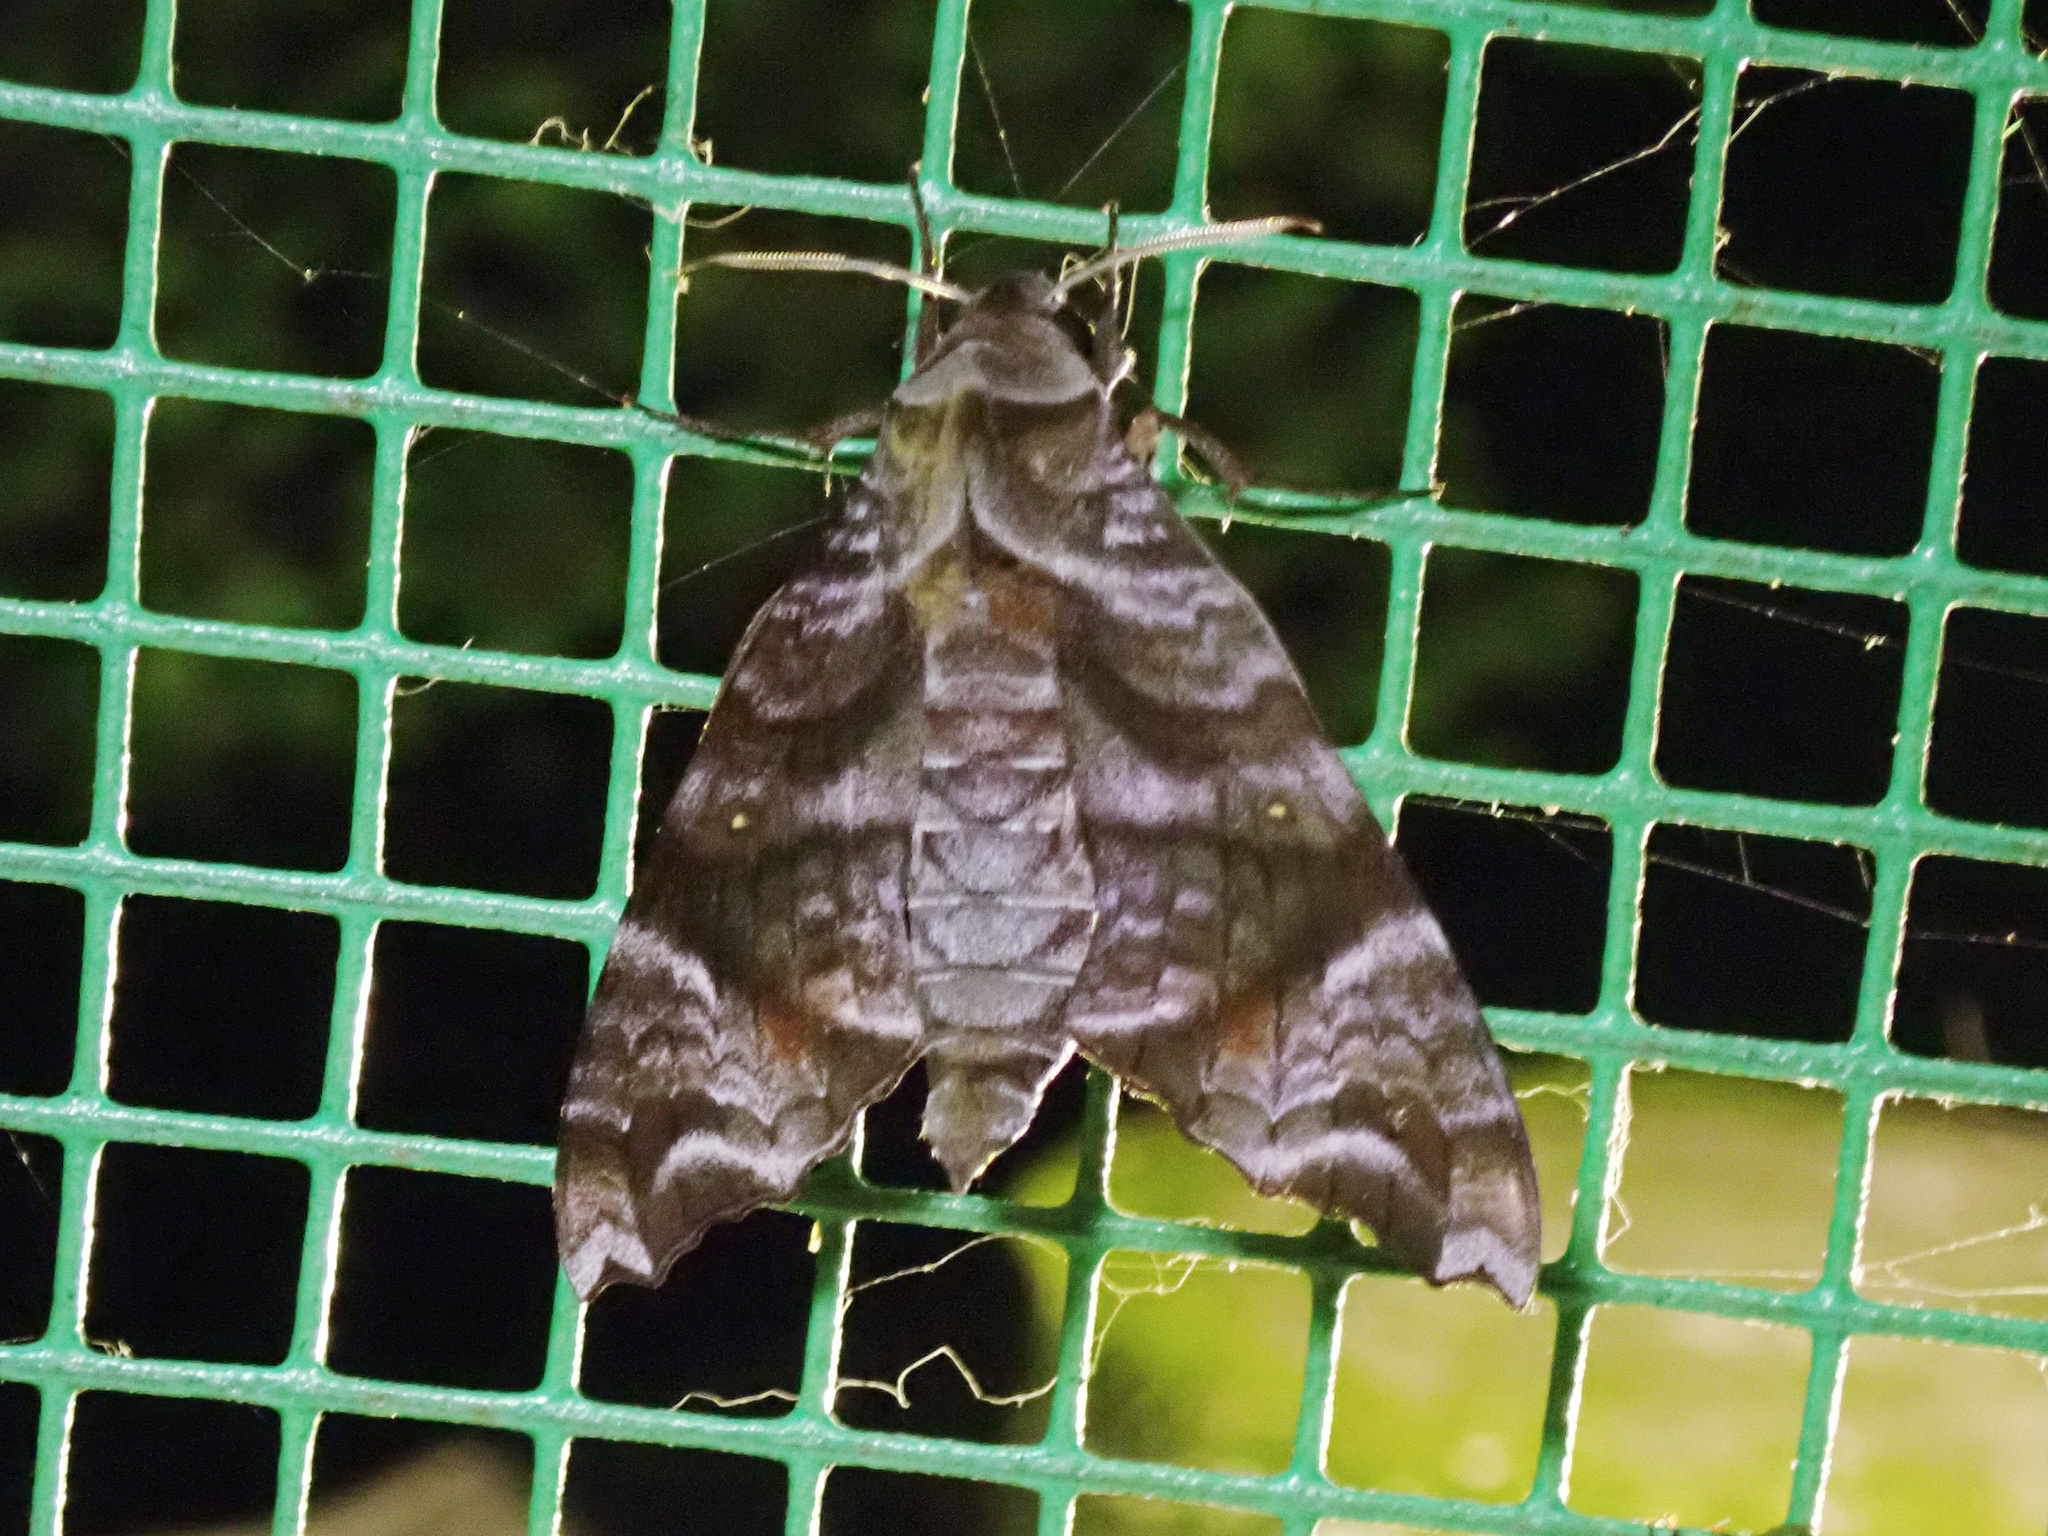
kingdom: Animalia
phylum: Arthropoda
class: Insecta
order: Lepidoptera
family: Sphingidae
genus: Acosmeryx
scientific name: Acosmeryx sericeus
